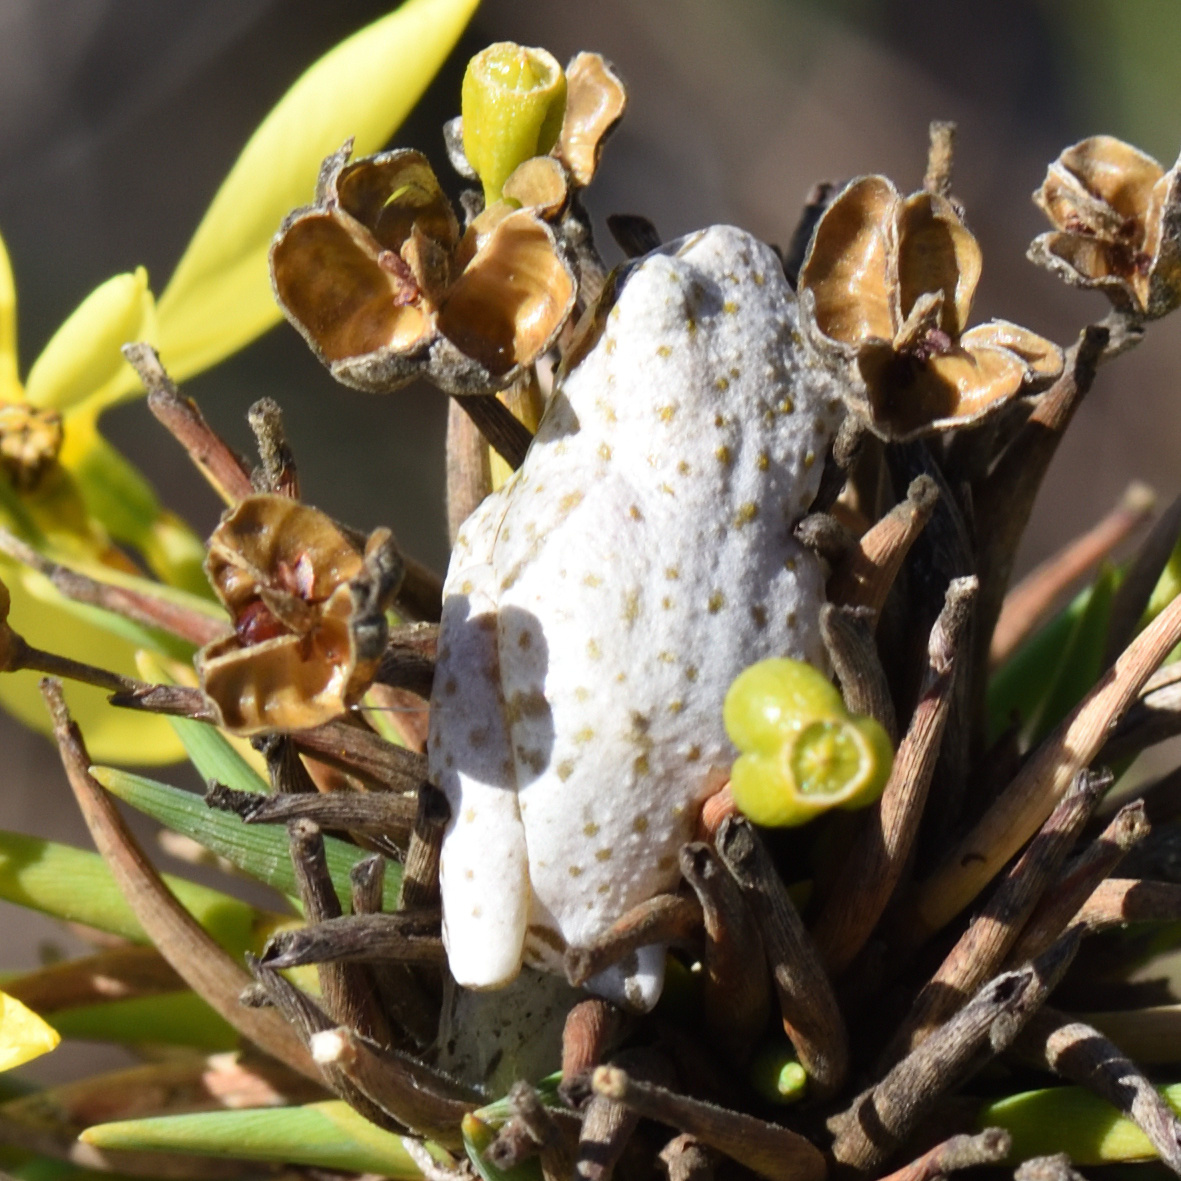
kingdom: Animalia
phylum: Chordata
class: Amphibia
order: Anura
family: Hyperoliidae
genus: Hyperolius
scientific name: Hyperolius marmoratus
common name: Painted reed frog
